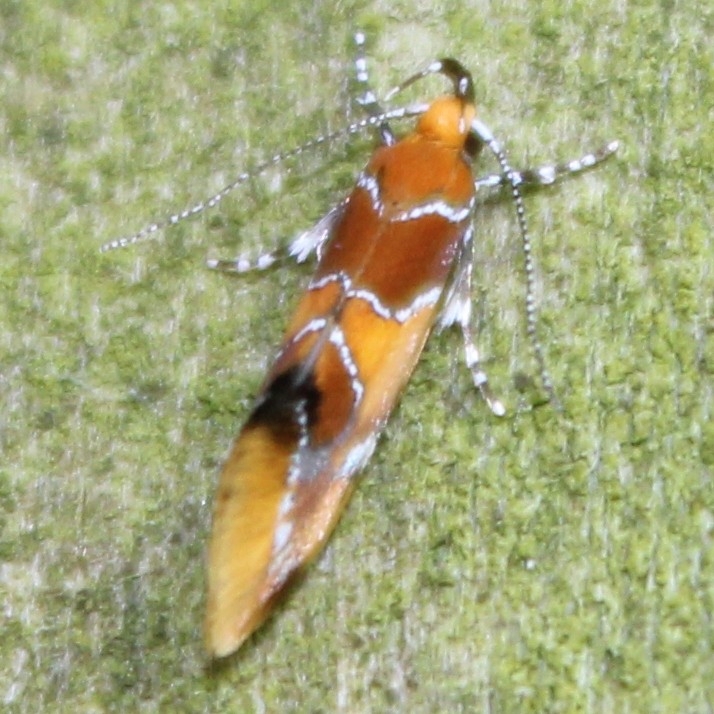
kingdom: Animalia
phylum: Arthropoda
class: Insecta
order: Lepidoptera
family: Oecophoridae
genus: Callima
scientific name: Callima argenticinctella
